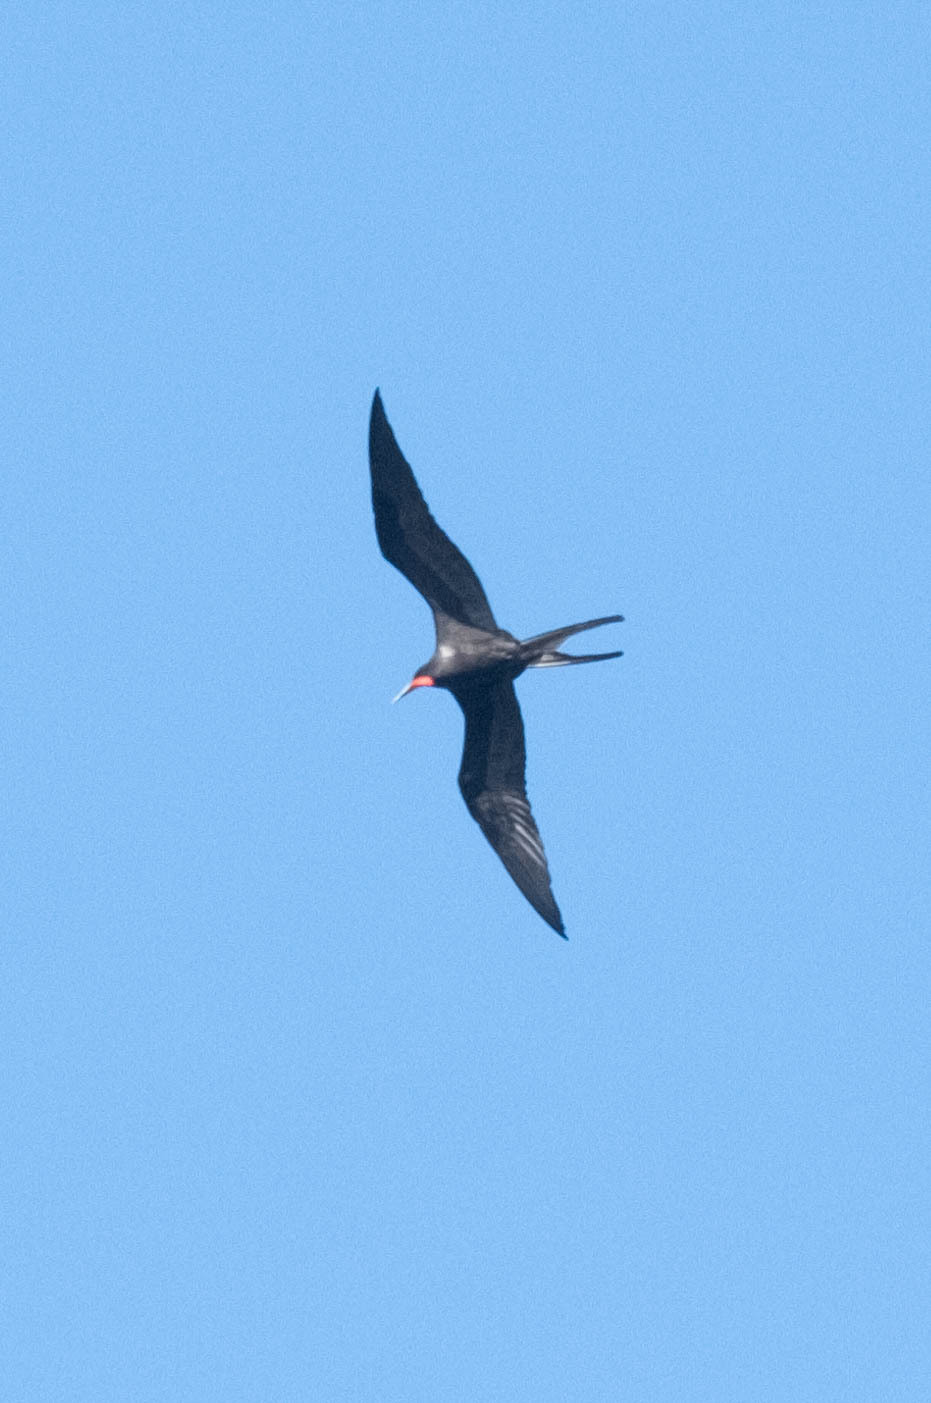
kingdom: Animalia
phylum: Chordata
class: Aves
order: Suliformes
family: Fregatidae
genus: Fregata
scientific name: Fregata magnificens
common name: Magnificent frigatebird
